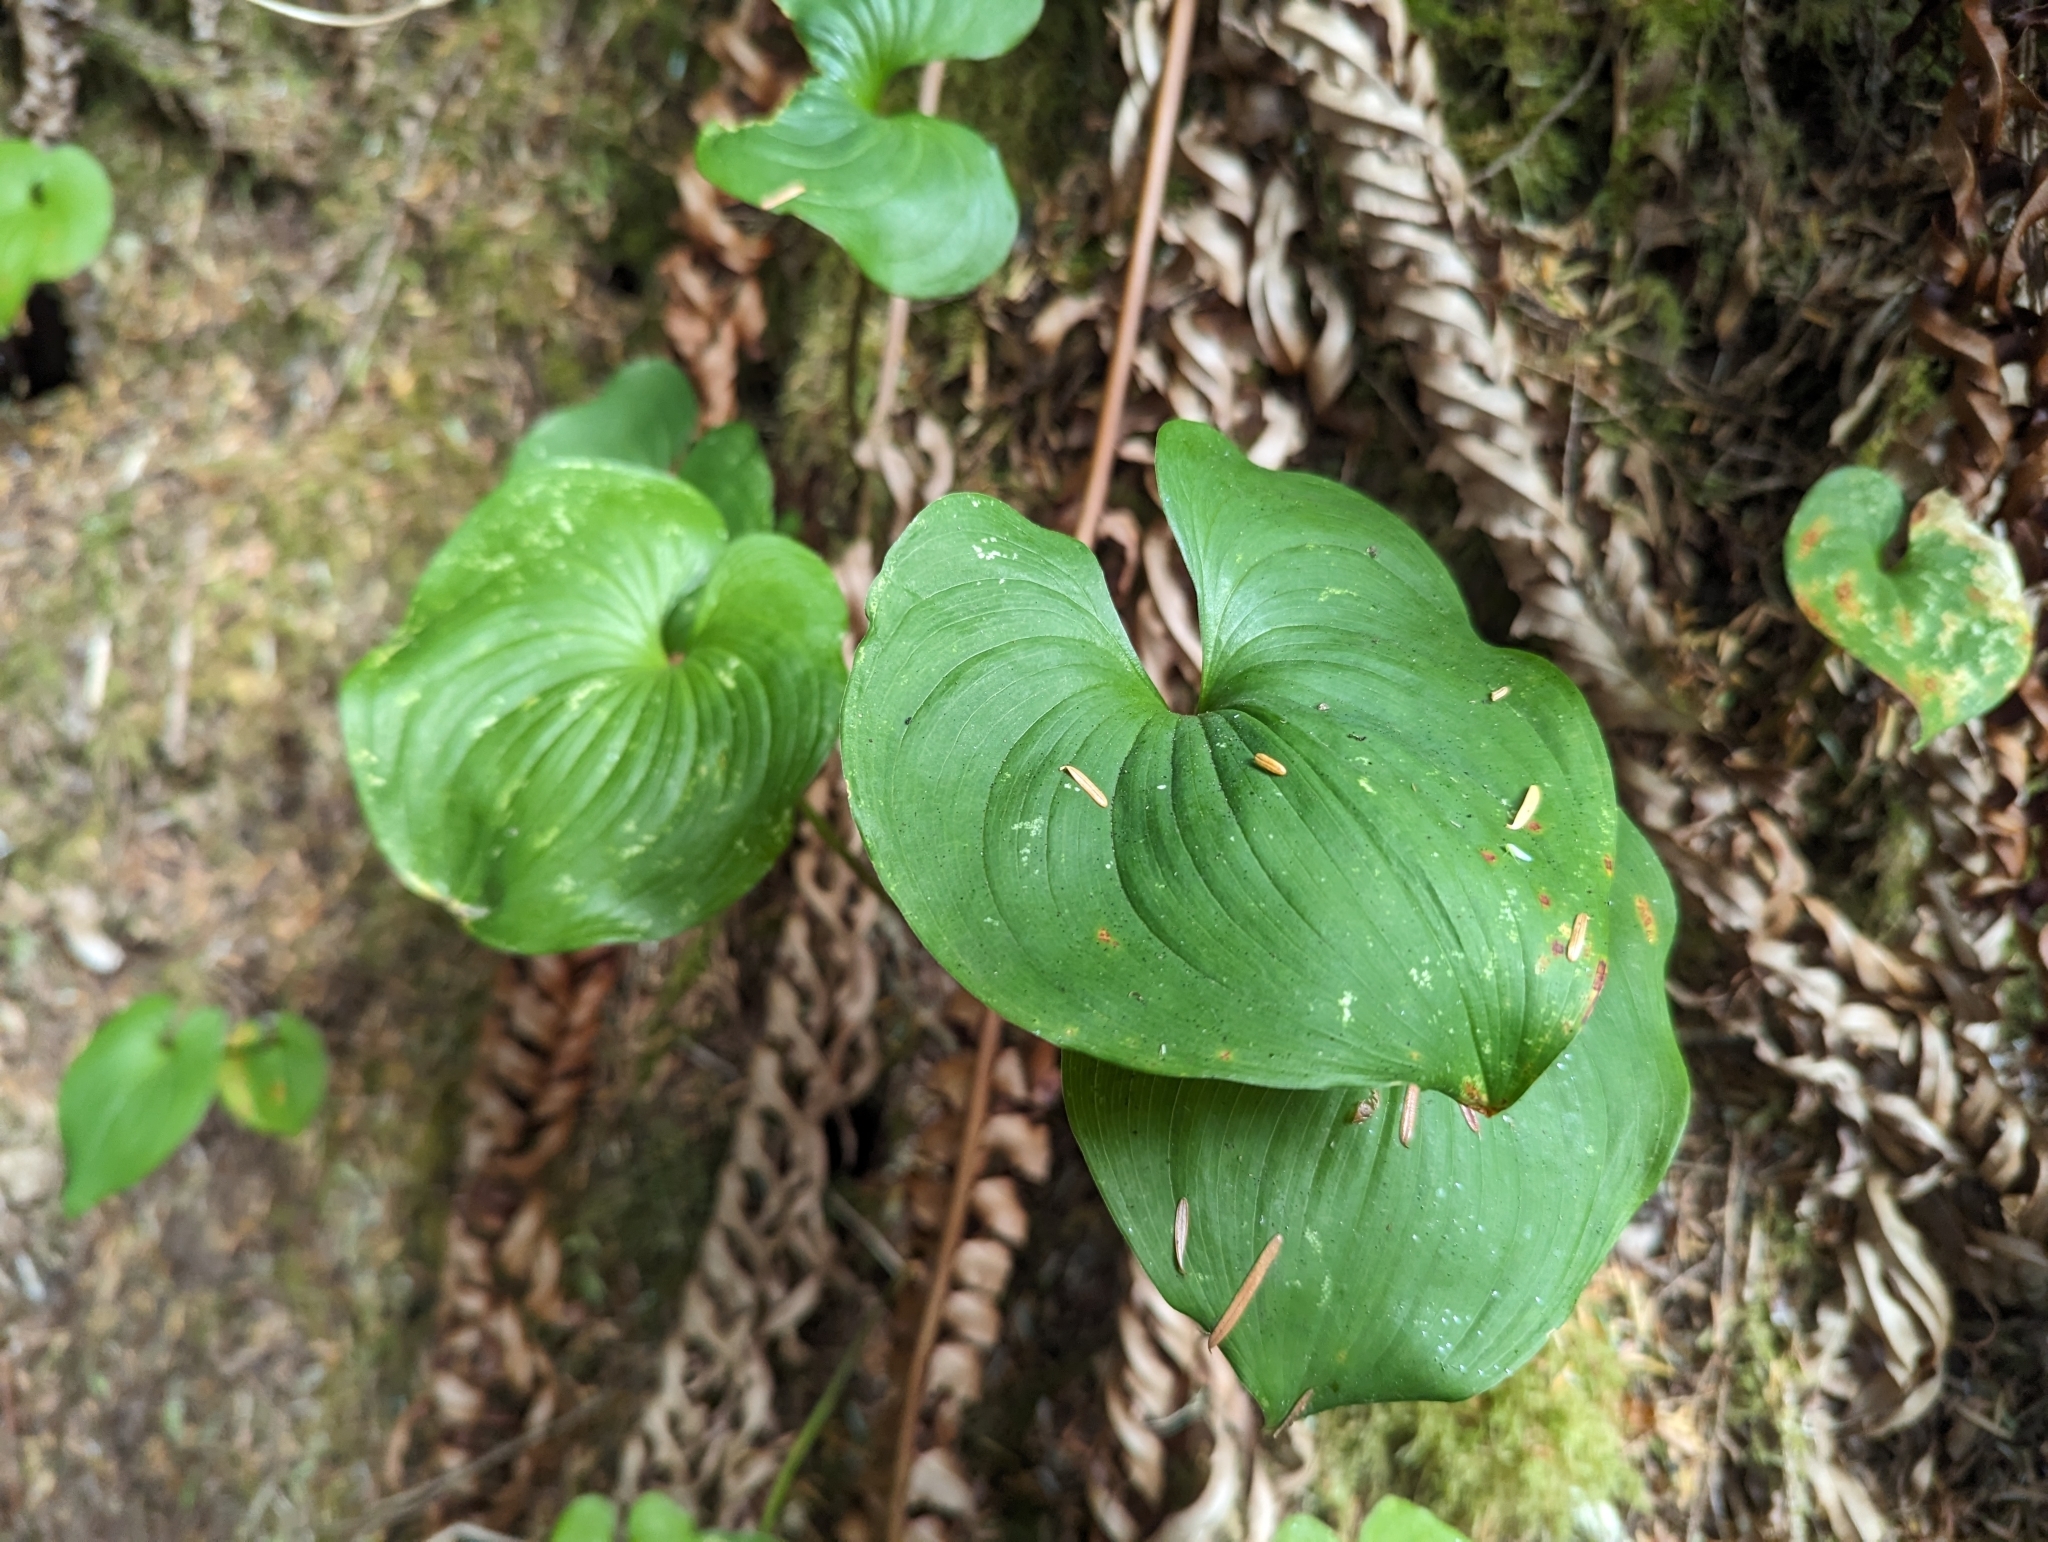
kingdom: Plantae
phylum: Tracheophyta
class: Liliopsida
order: Asparagales
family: Asparagaceae
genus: Maianthemum
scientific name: Maianthemum dilatatum
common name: False lily-of-the-valley
